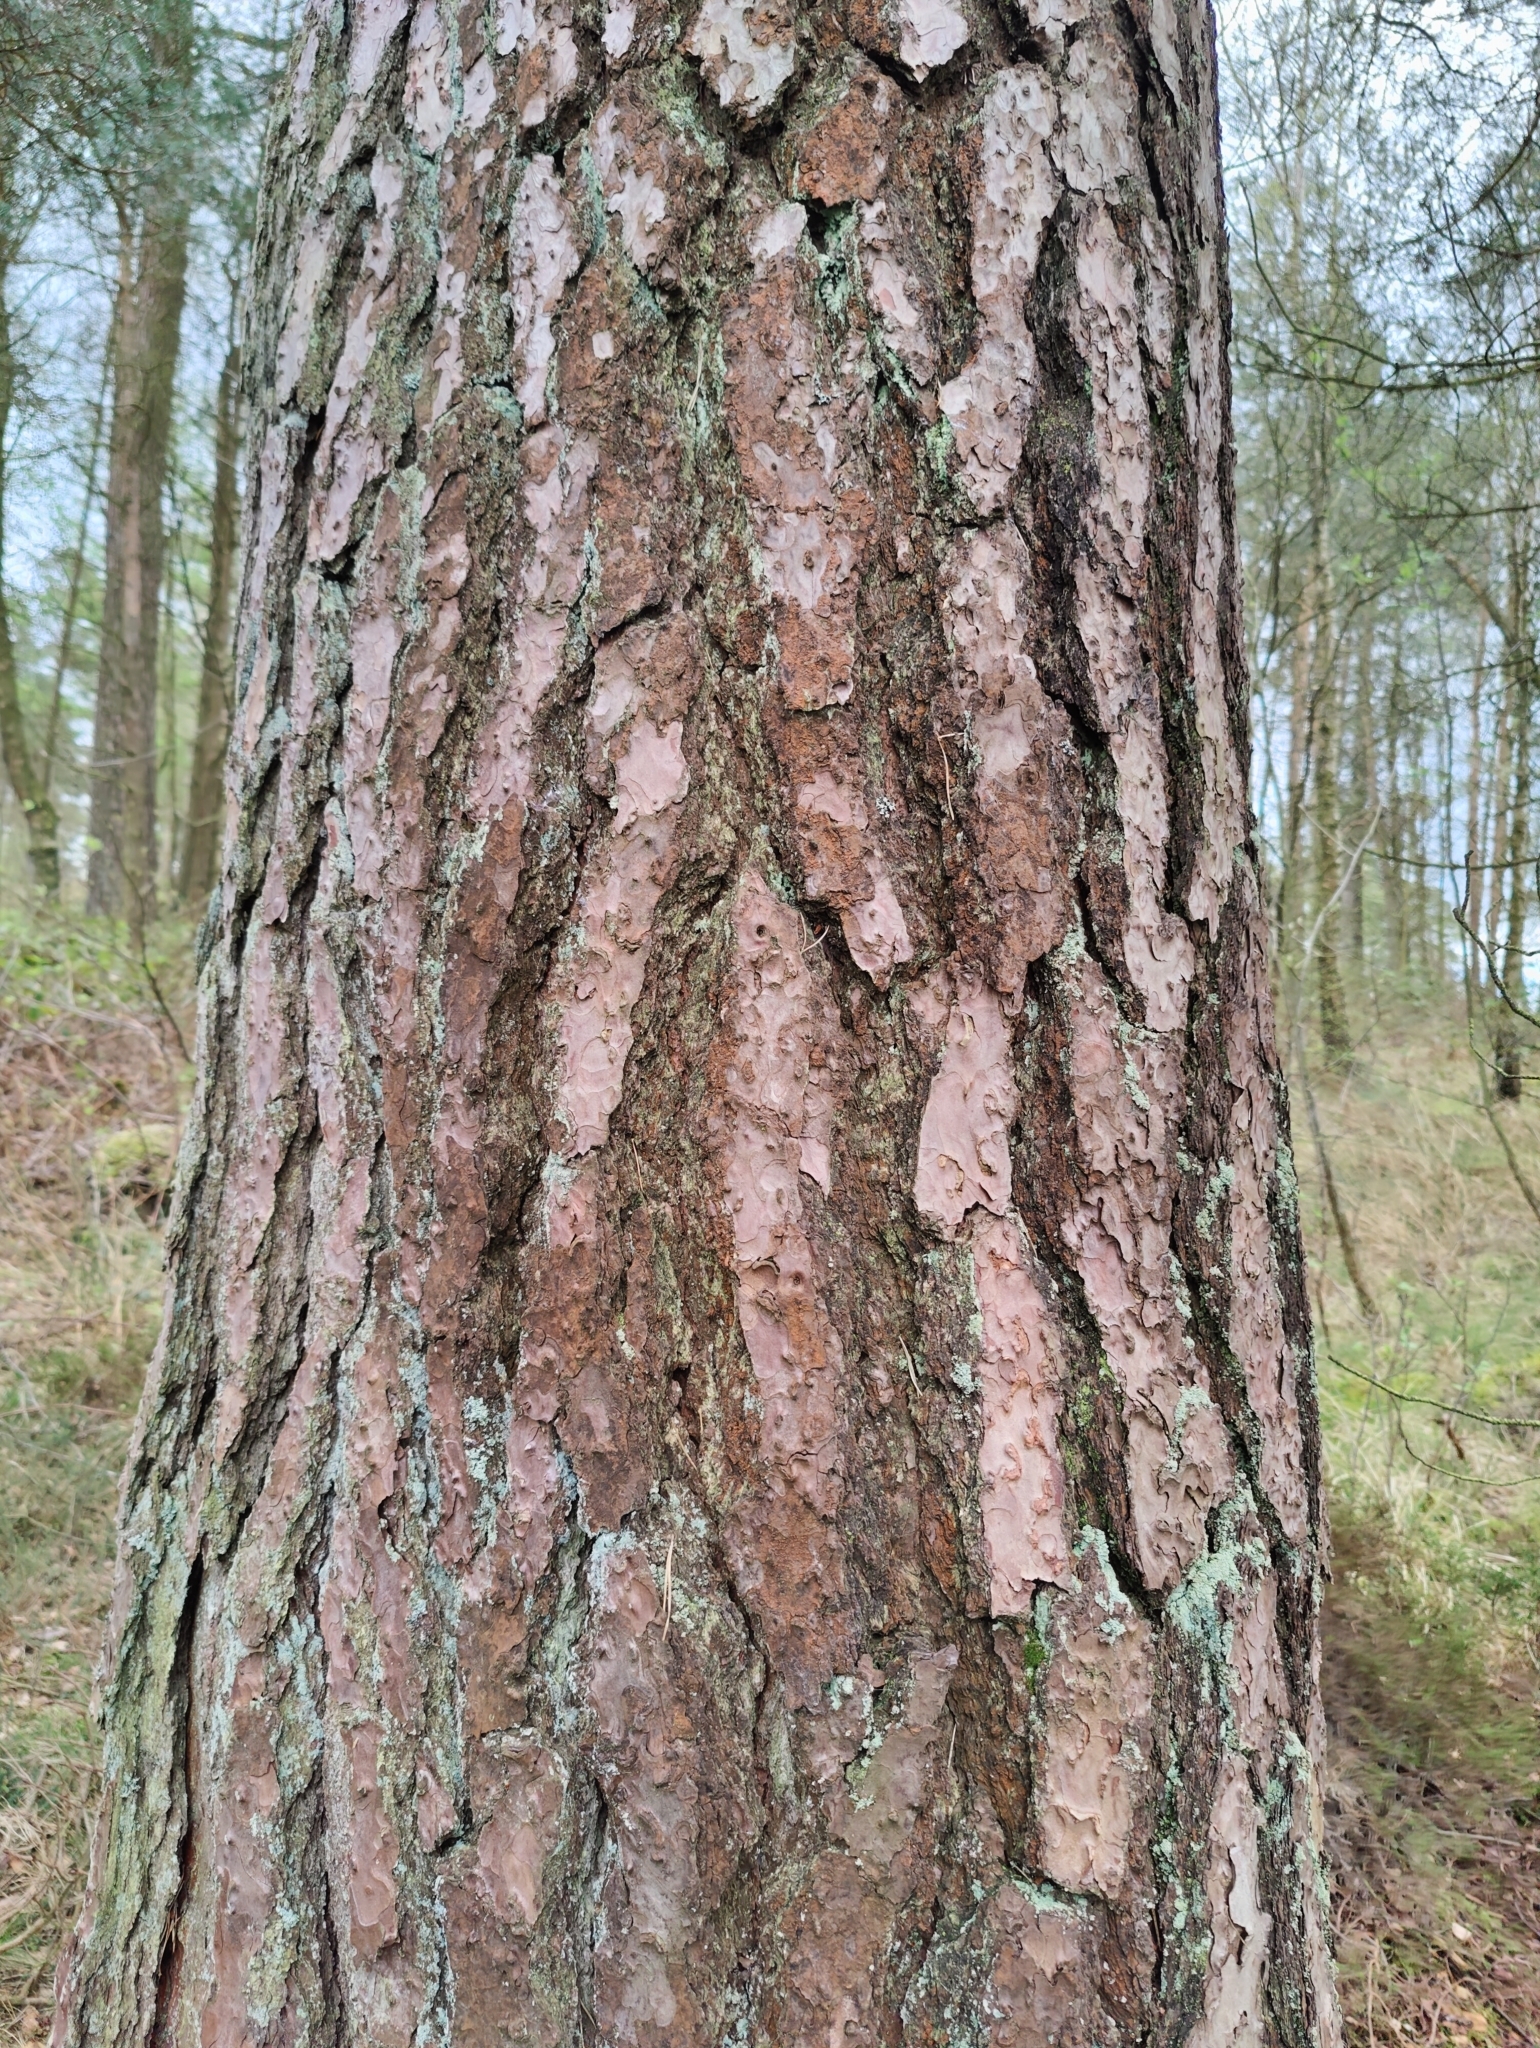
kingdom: Plantae
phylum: Tracheophyta
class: Pinopsida
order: Pinales
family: Pinaceae
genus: Pinus
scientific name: Pinus sylvestris
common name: Scots pine
